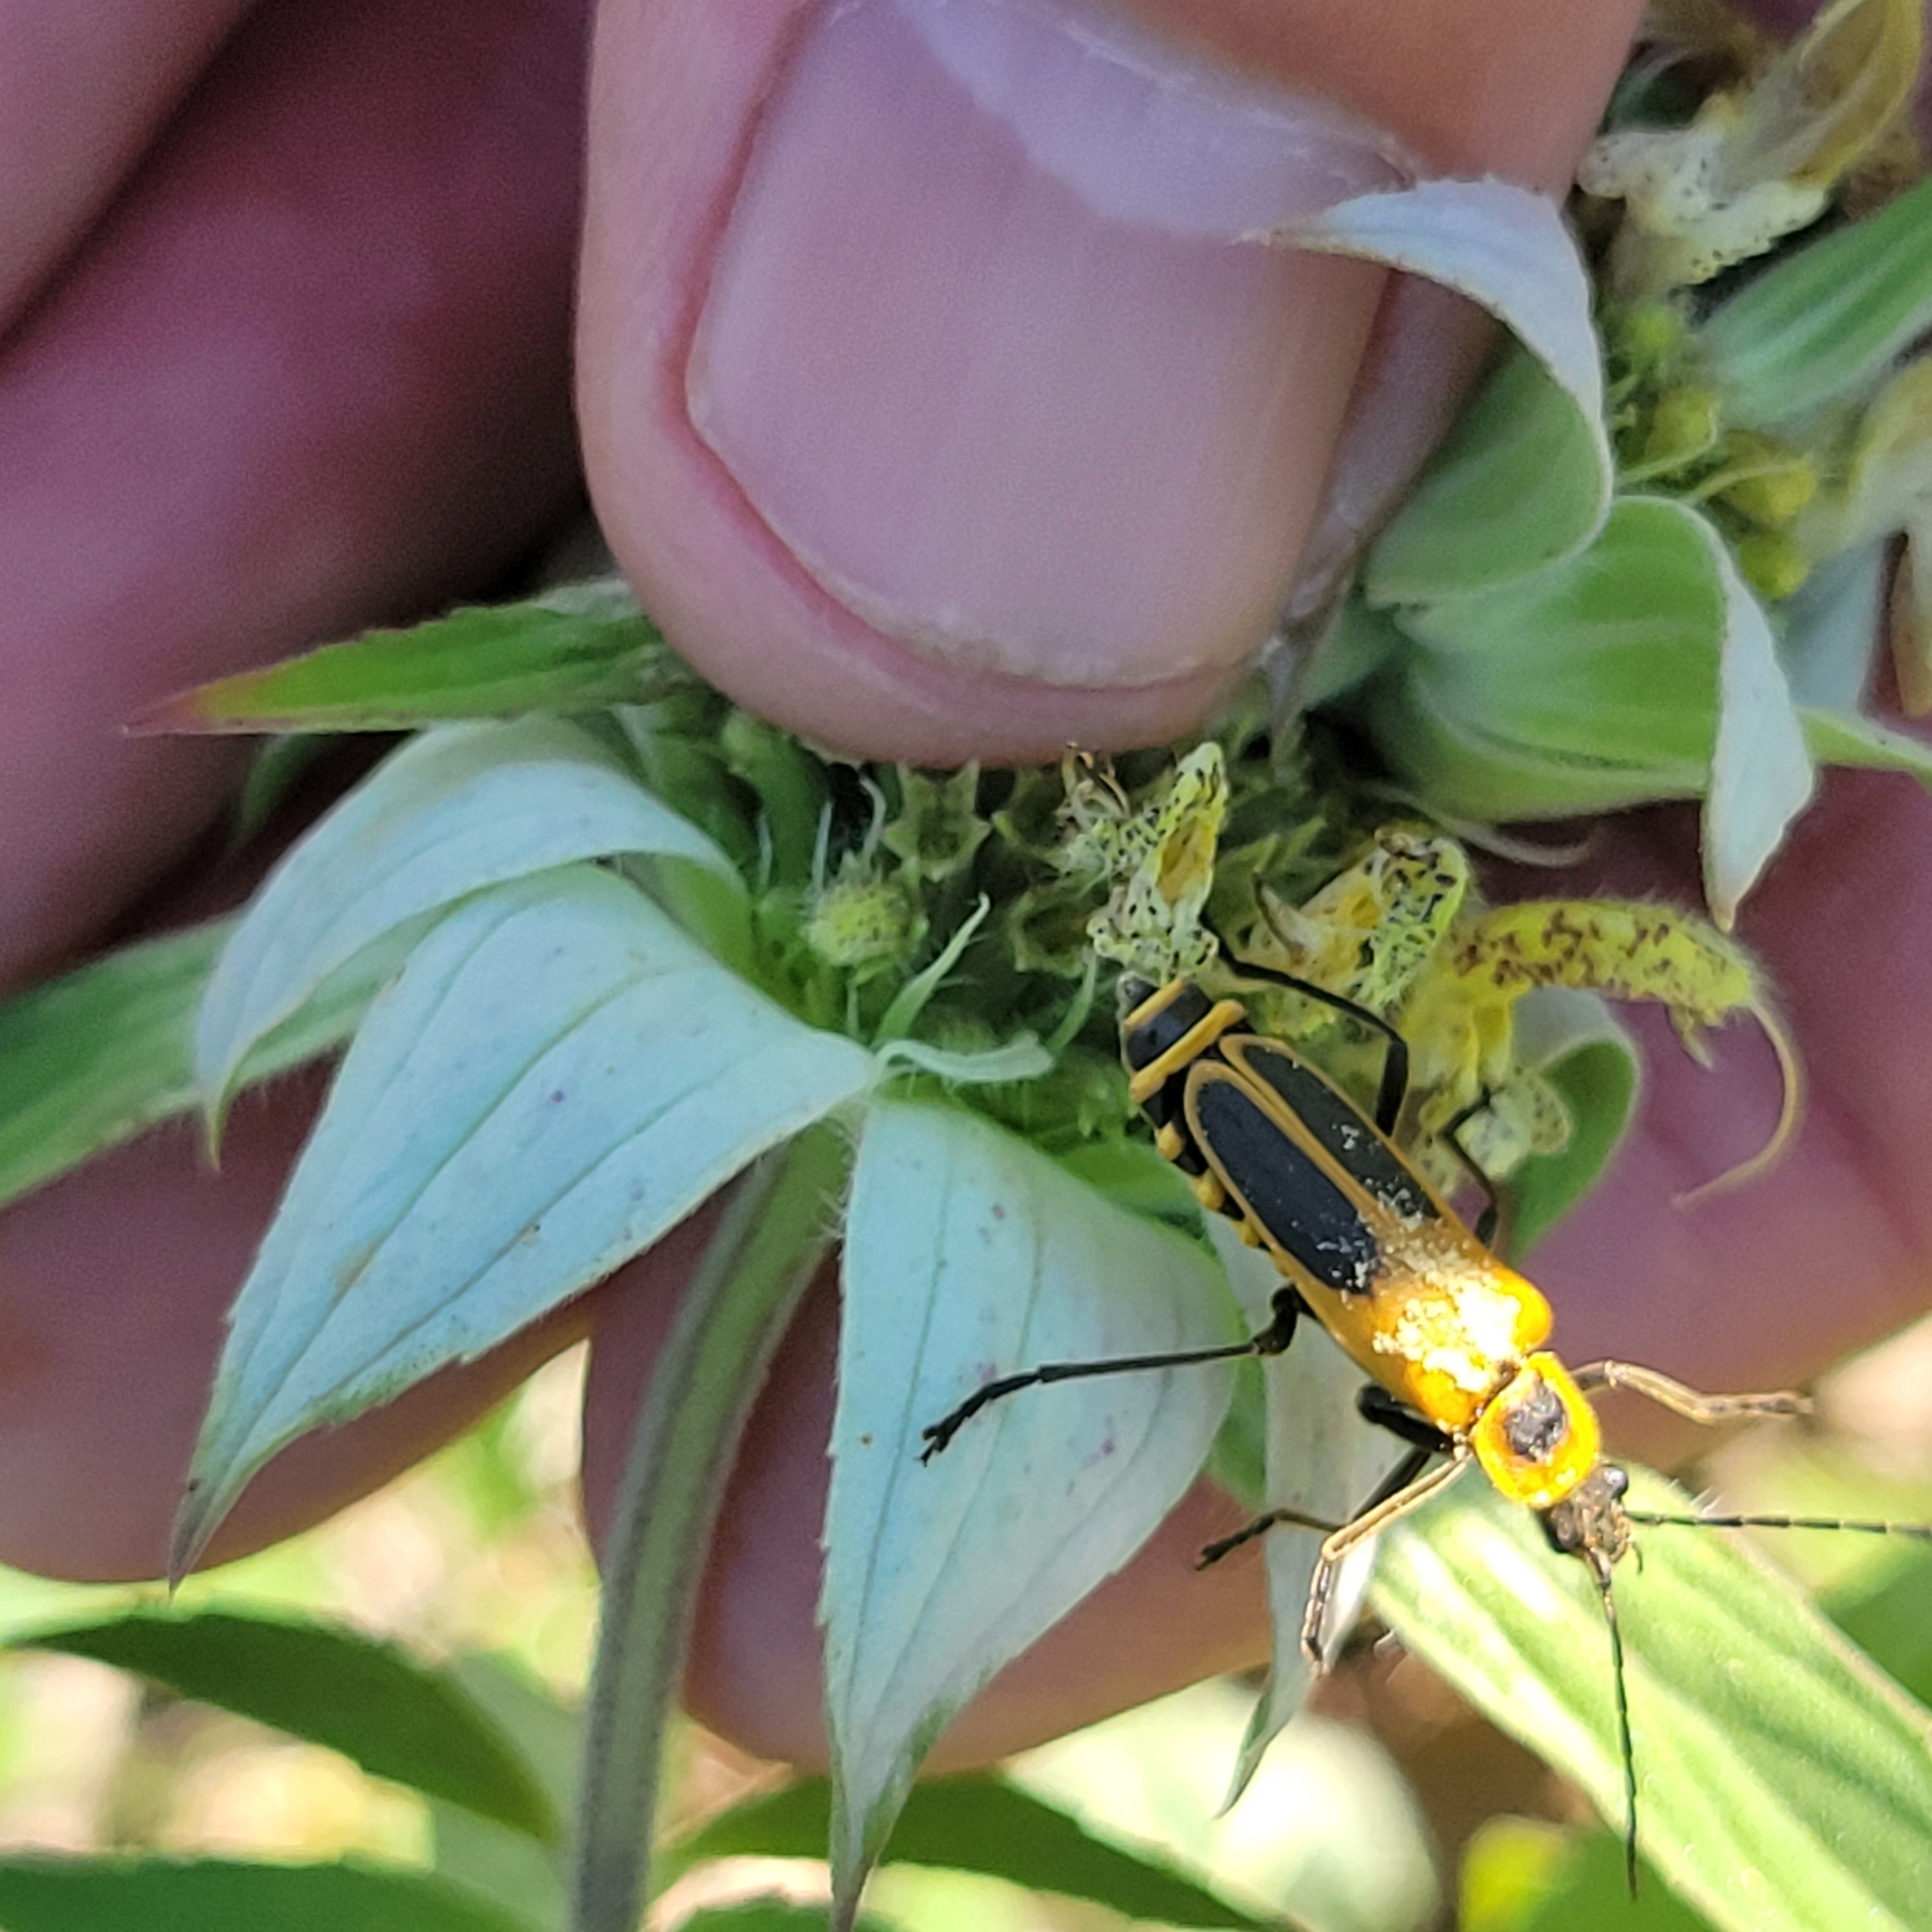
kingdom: Animalia
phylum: Arthropoda
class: Insecta
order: Coleoptera
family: Cantharidae
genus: Chauliognathus
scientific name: Chauliognathus pensylvanicus
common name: Goldenrod soldier beetle
